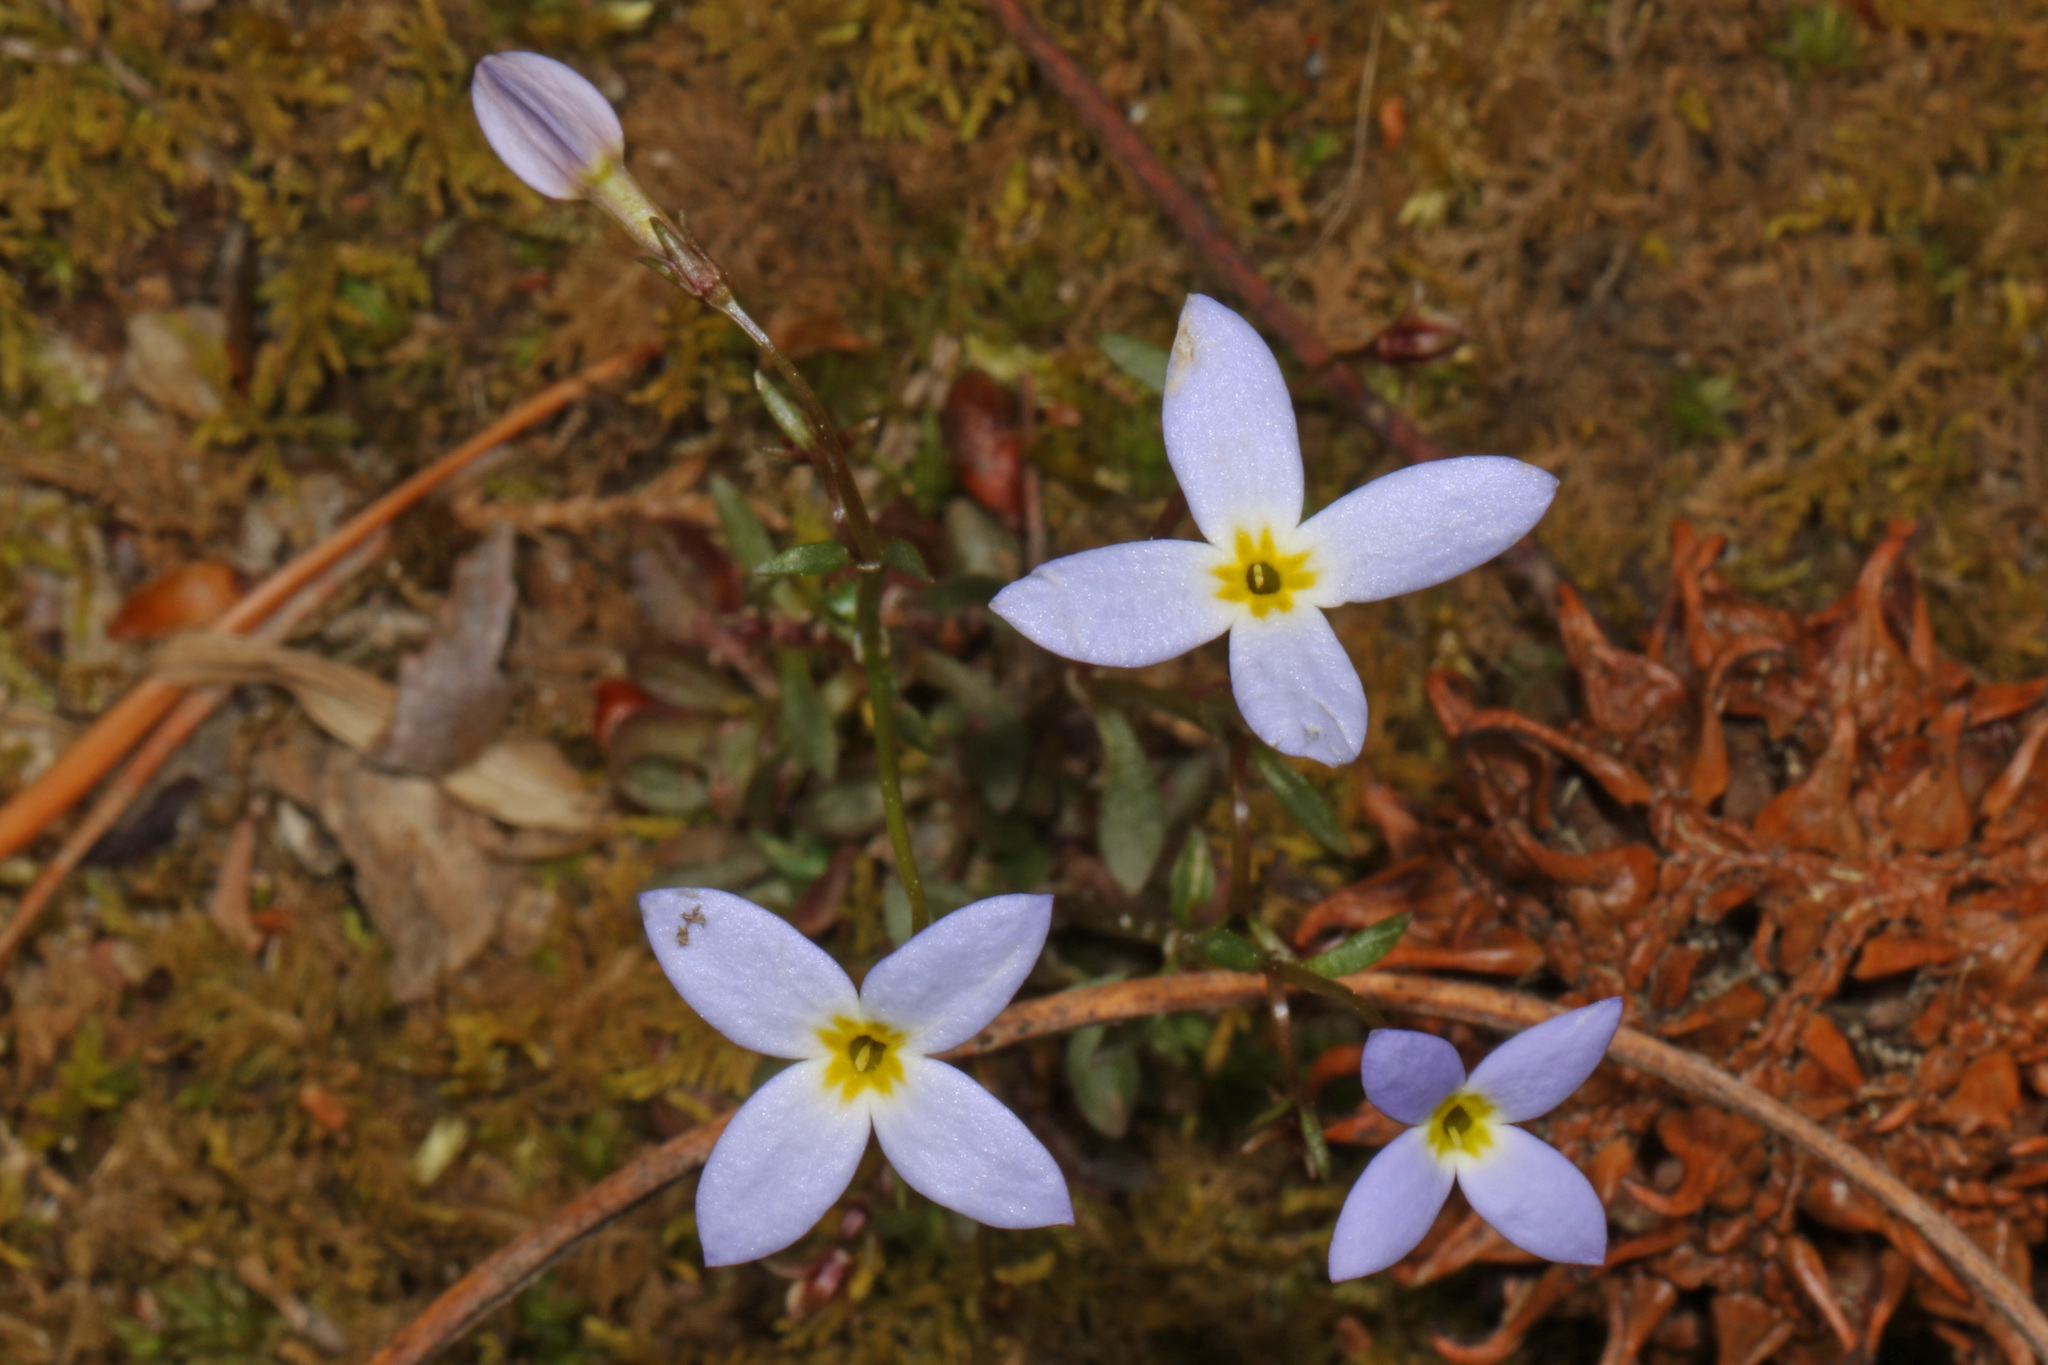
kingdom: Plantae
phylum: Tracheophyta
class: Magnoliopsida
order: Gentianales
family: Rubiaceae
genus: Houstonia
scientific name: Houstonia caerulea
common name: Bluets
